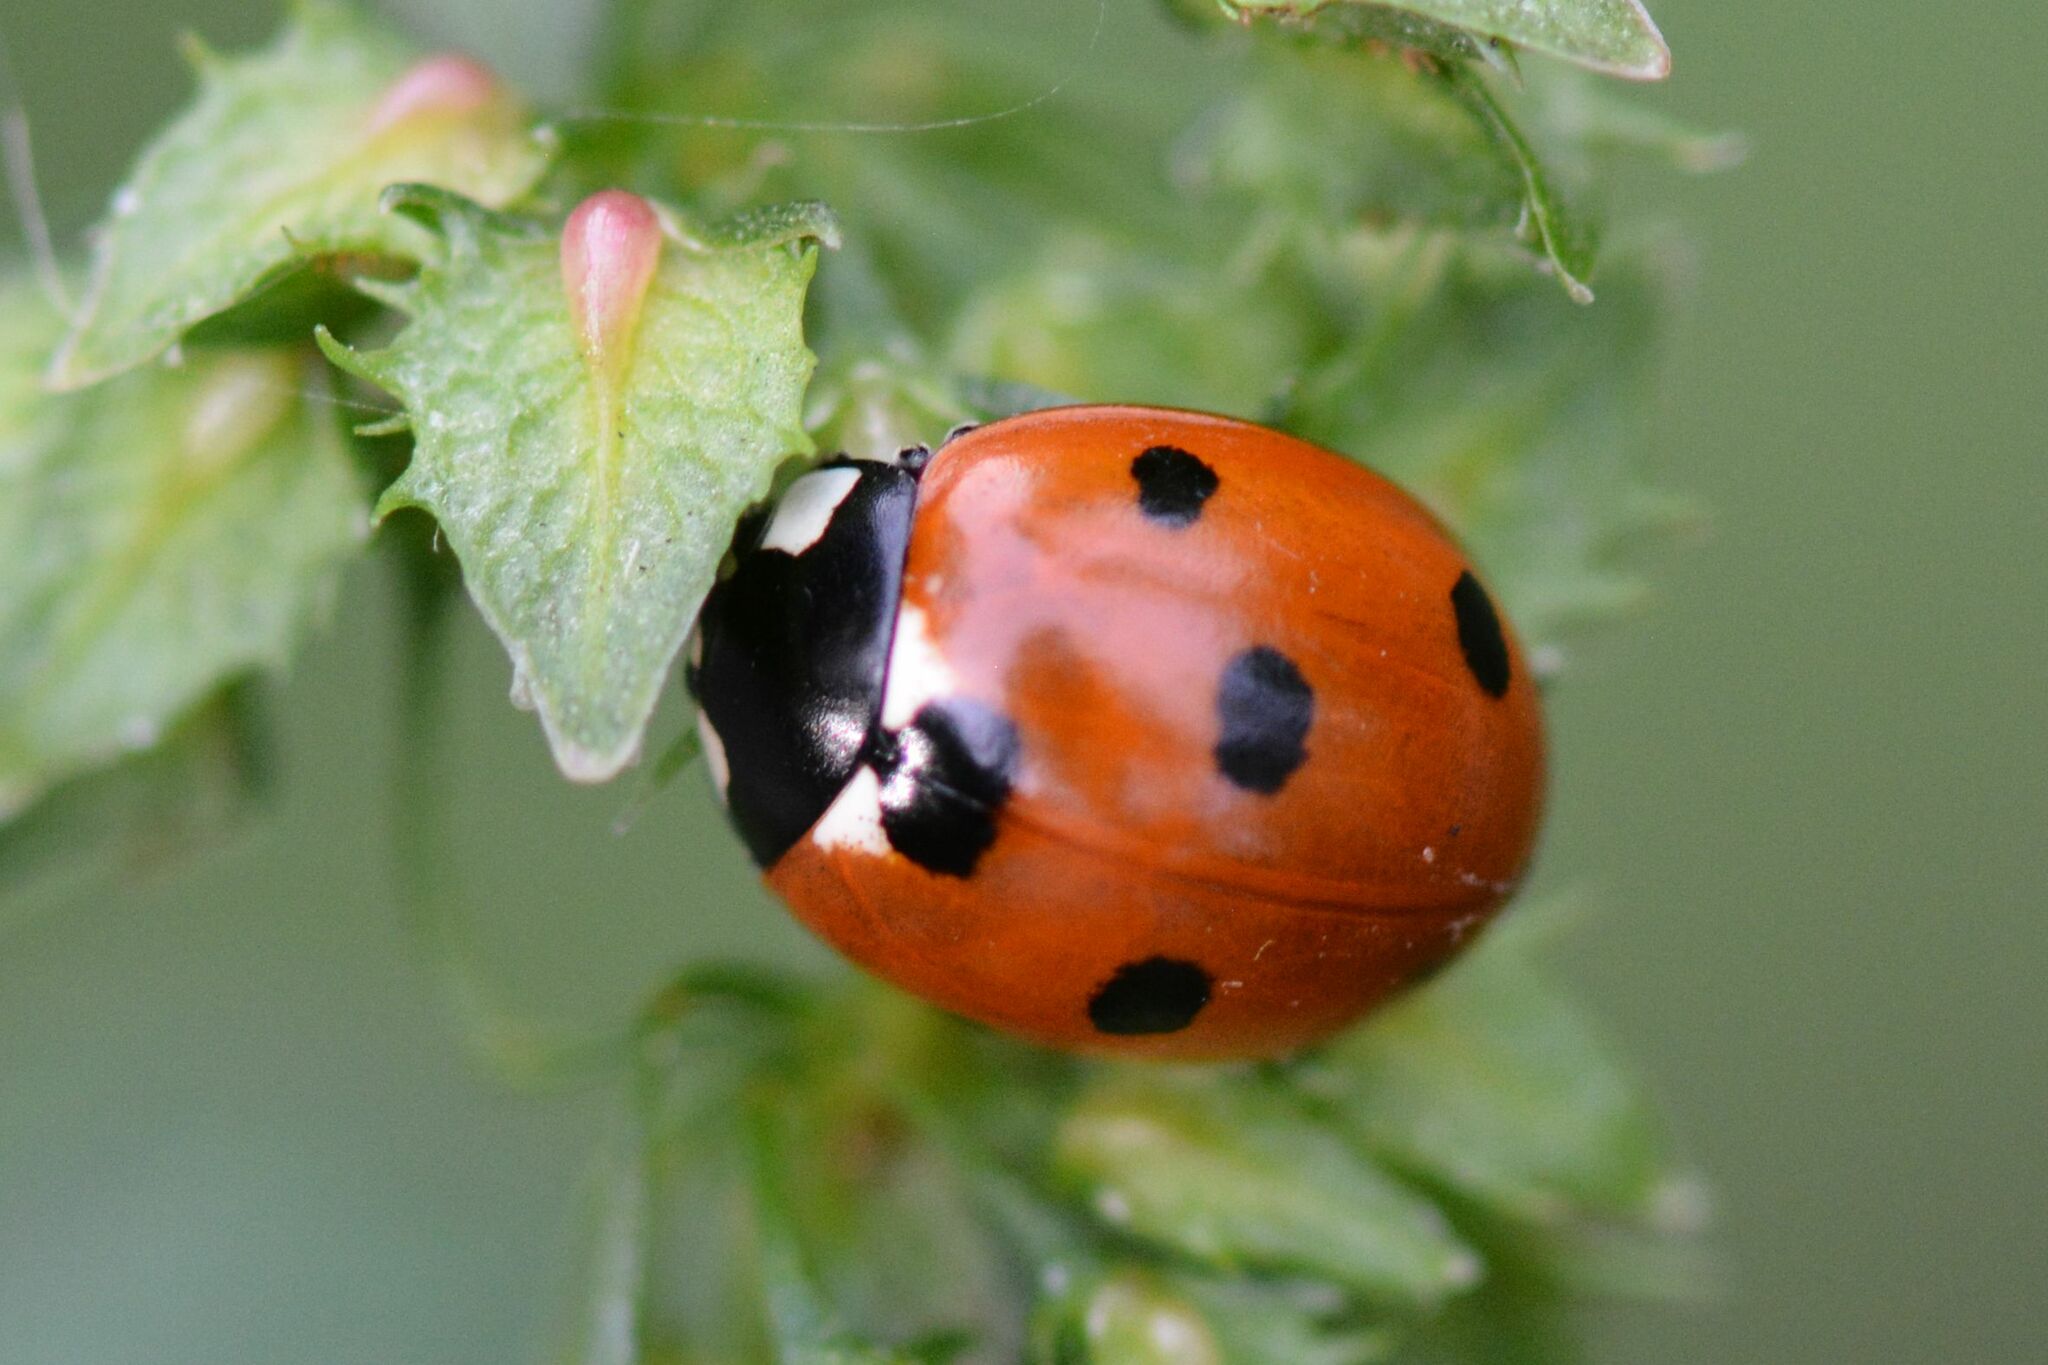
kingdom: Animalia
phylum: Arthropoda
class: Insecta
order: Coleoptera
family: Coccinellidae
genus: Coccinella
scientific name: Coccinella septempunctata
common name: Sevenspotted lady beetle
